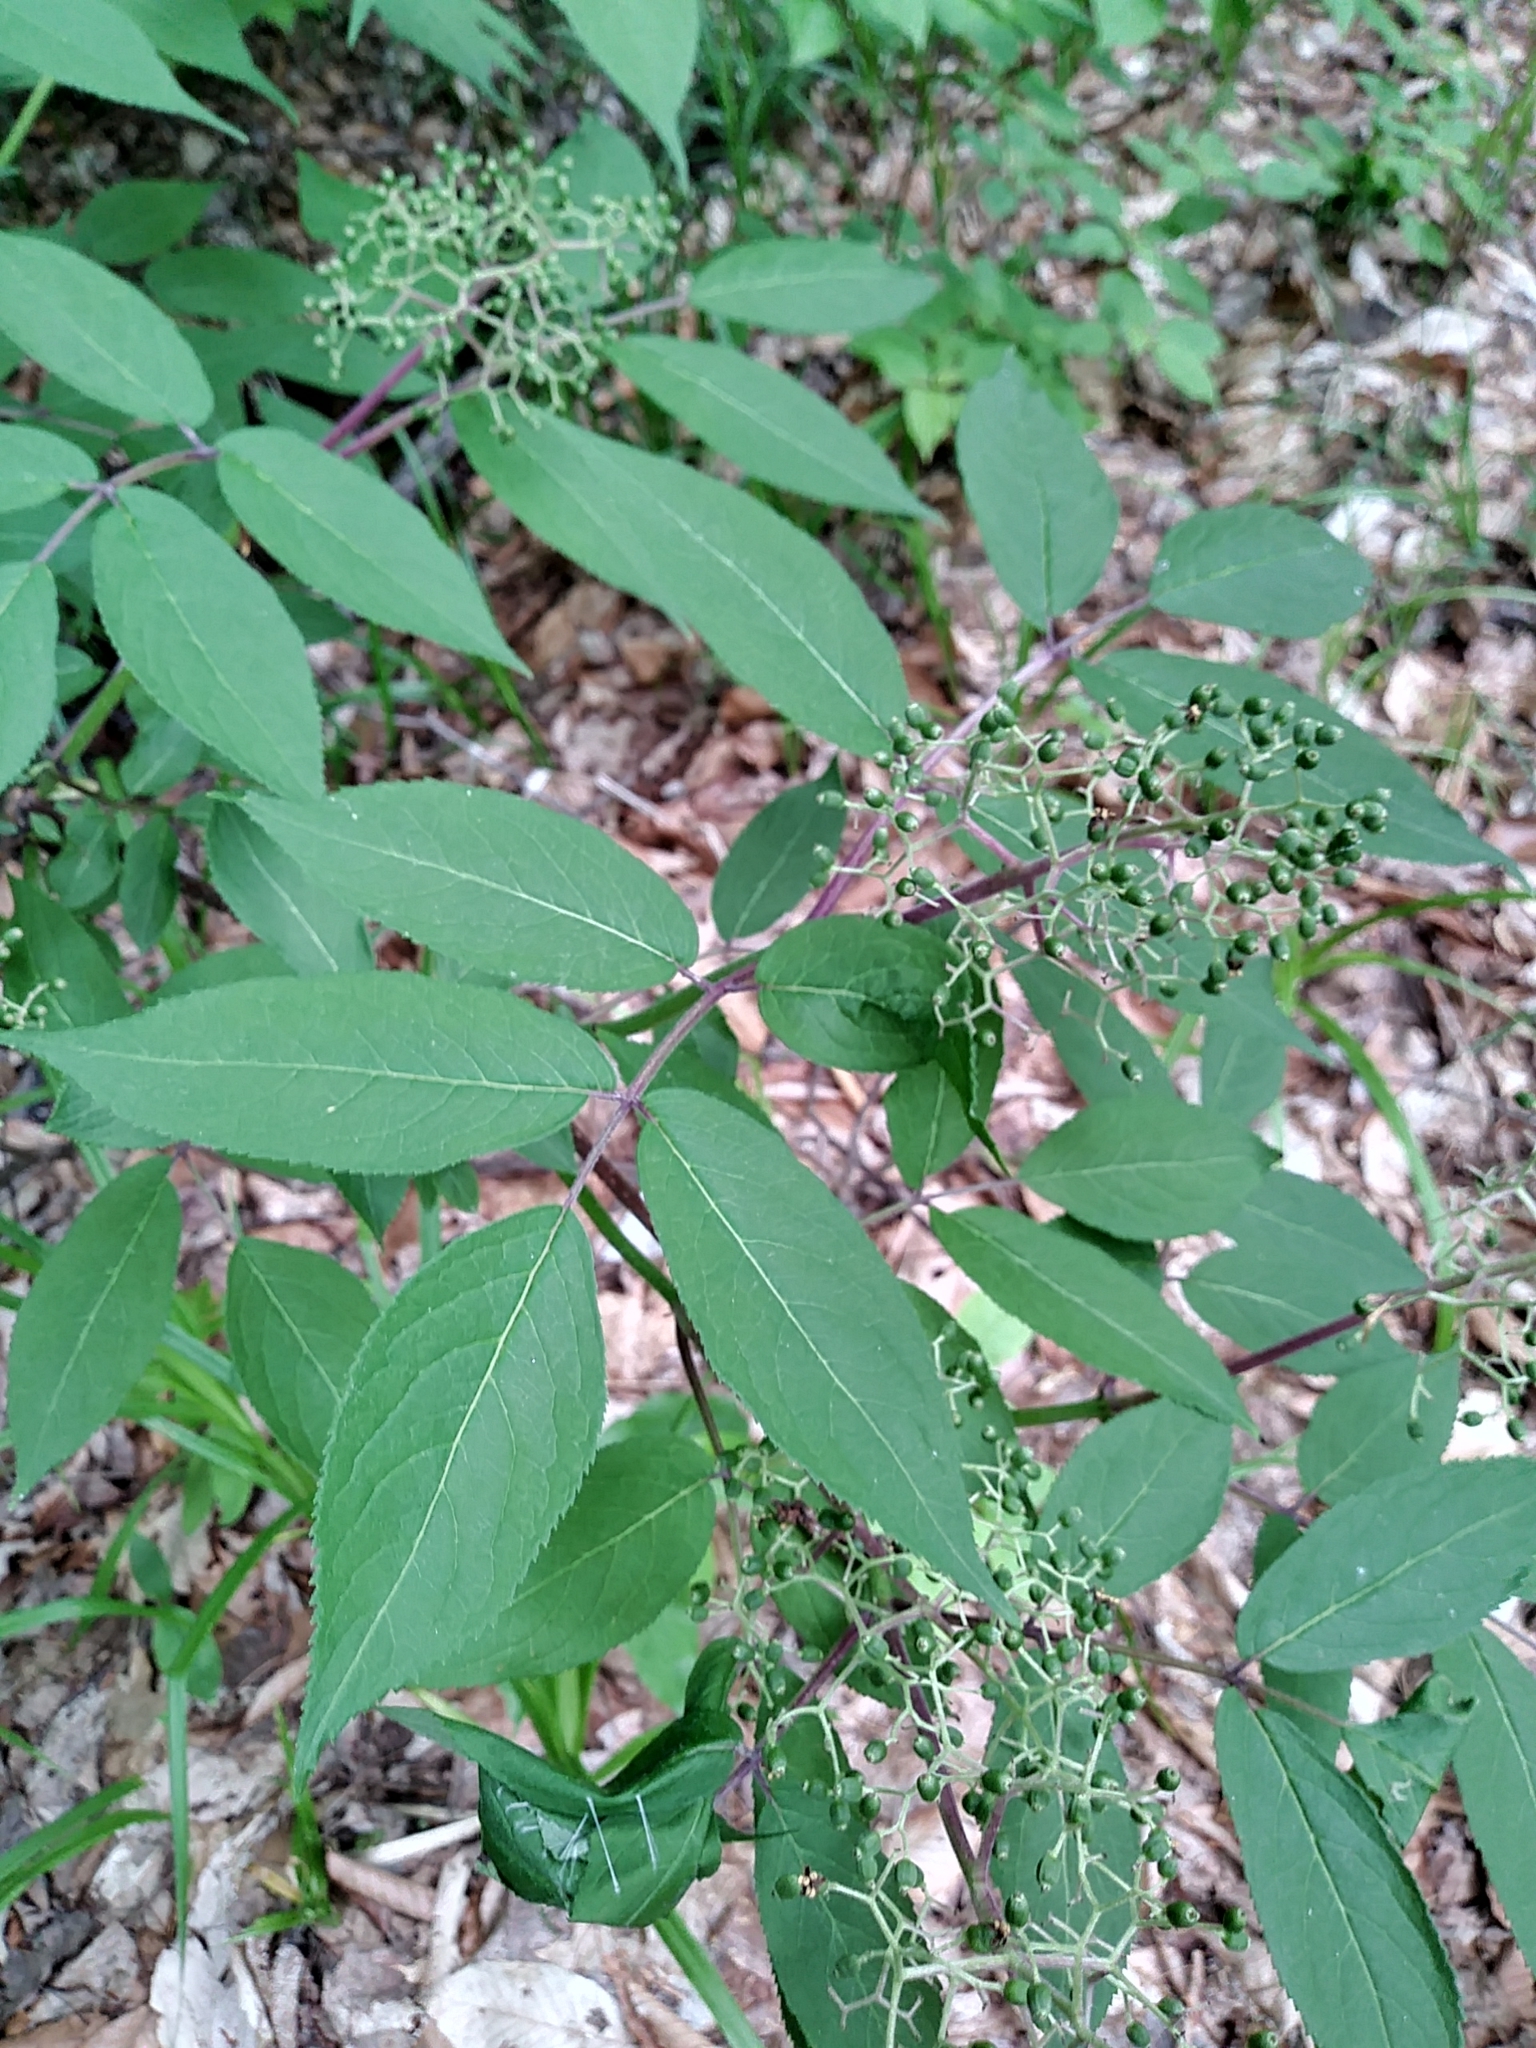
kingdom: Plantae
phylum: Tracheophyta
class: Magnoliopsida
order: Dipsacales
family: Viburnaceae
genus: Sambucus
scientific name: Sambucus racemosa
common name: Red-berried elder
